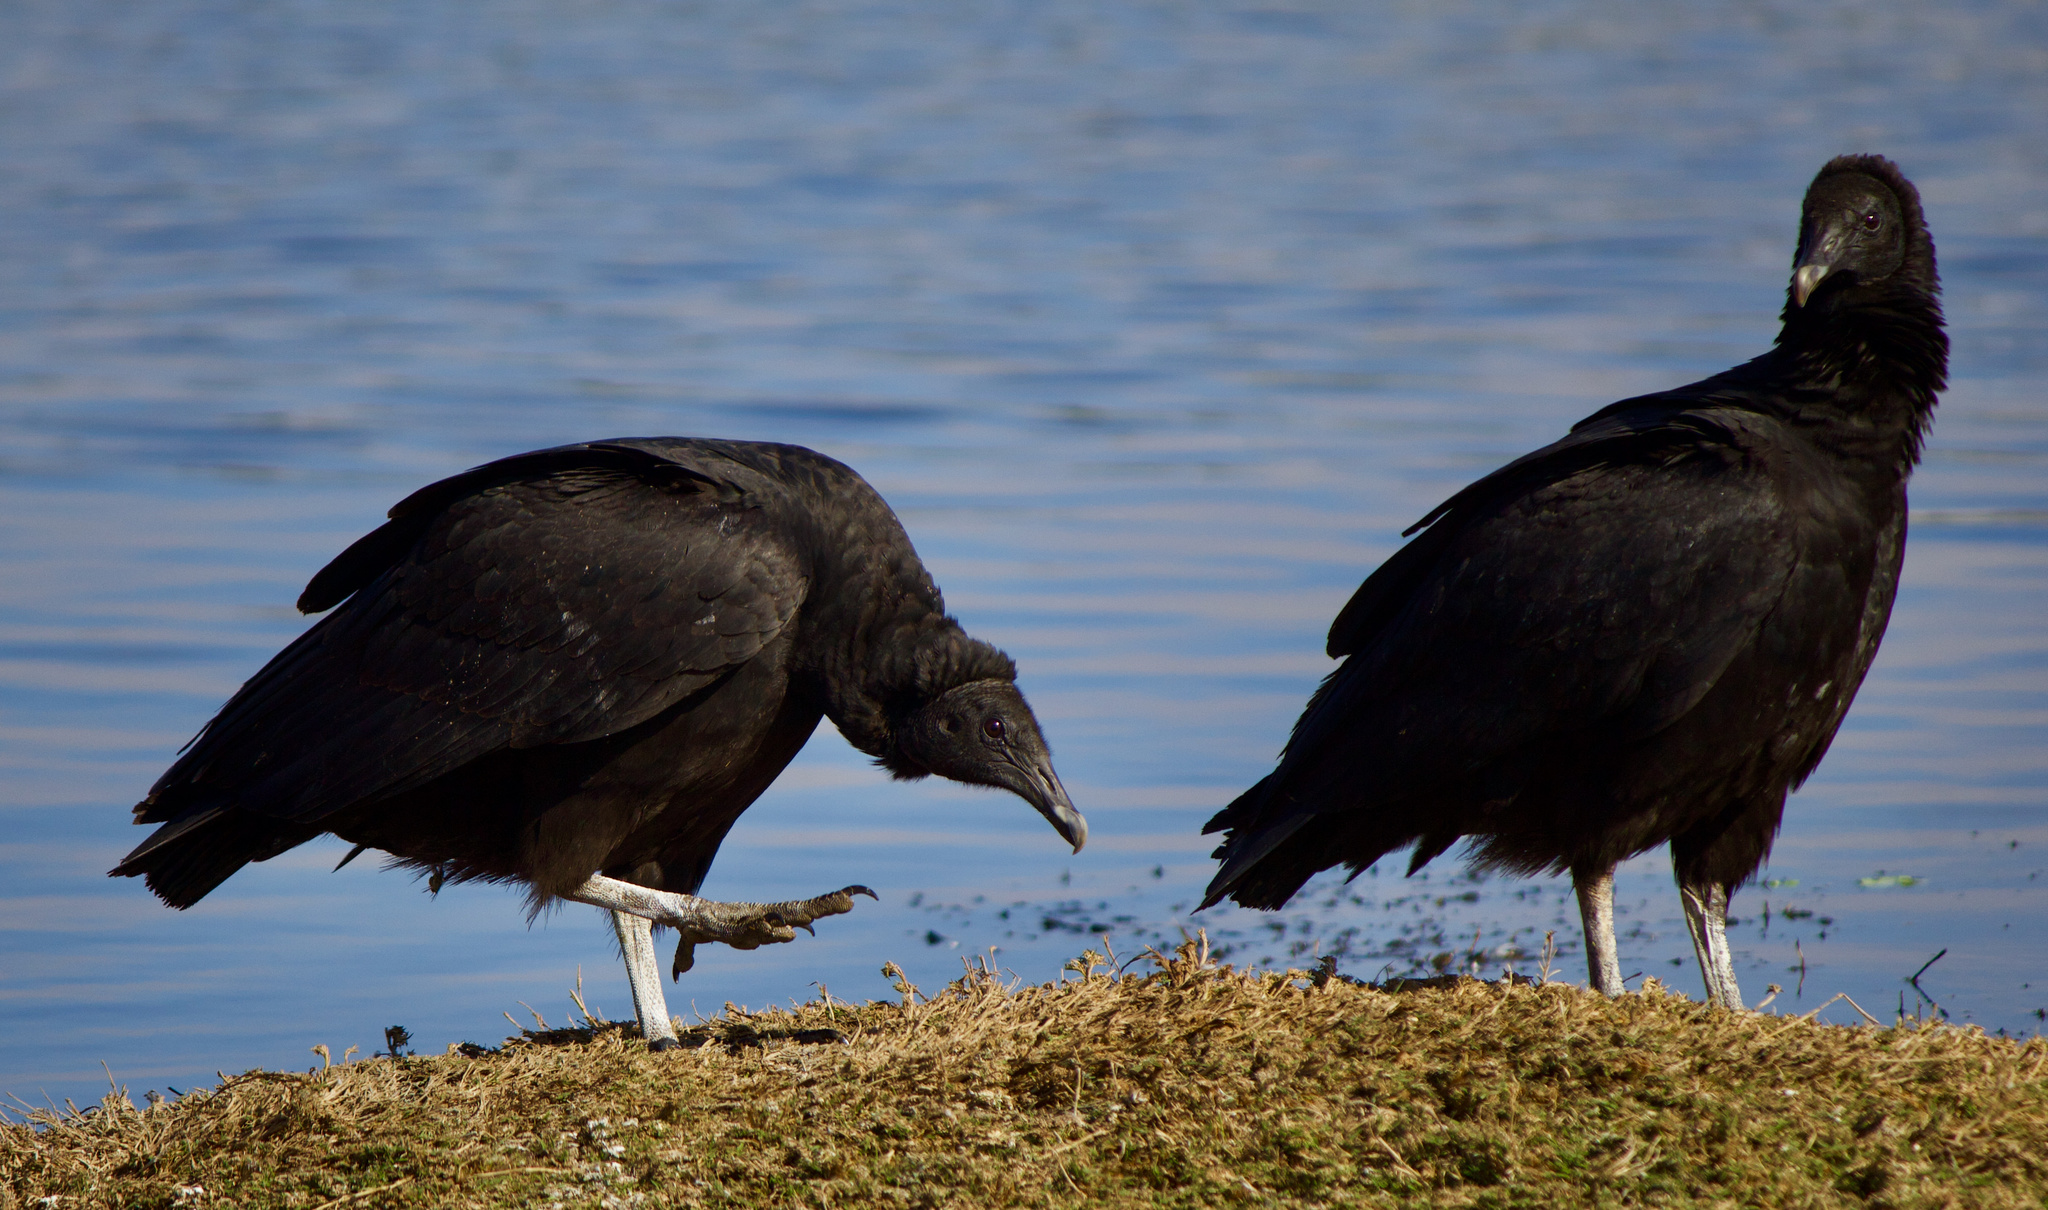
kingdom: Animalia
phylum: Chordata
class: Aves
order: Accipitriformes
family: Cathartidae
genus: Coragyps
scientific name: Coragyps atratus
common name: Black vulture
